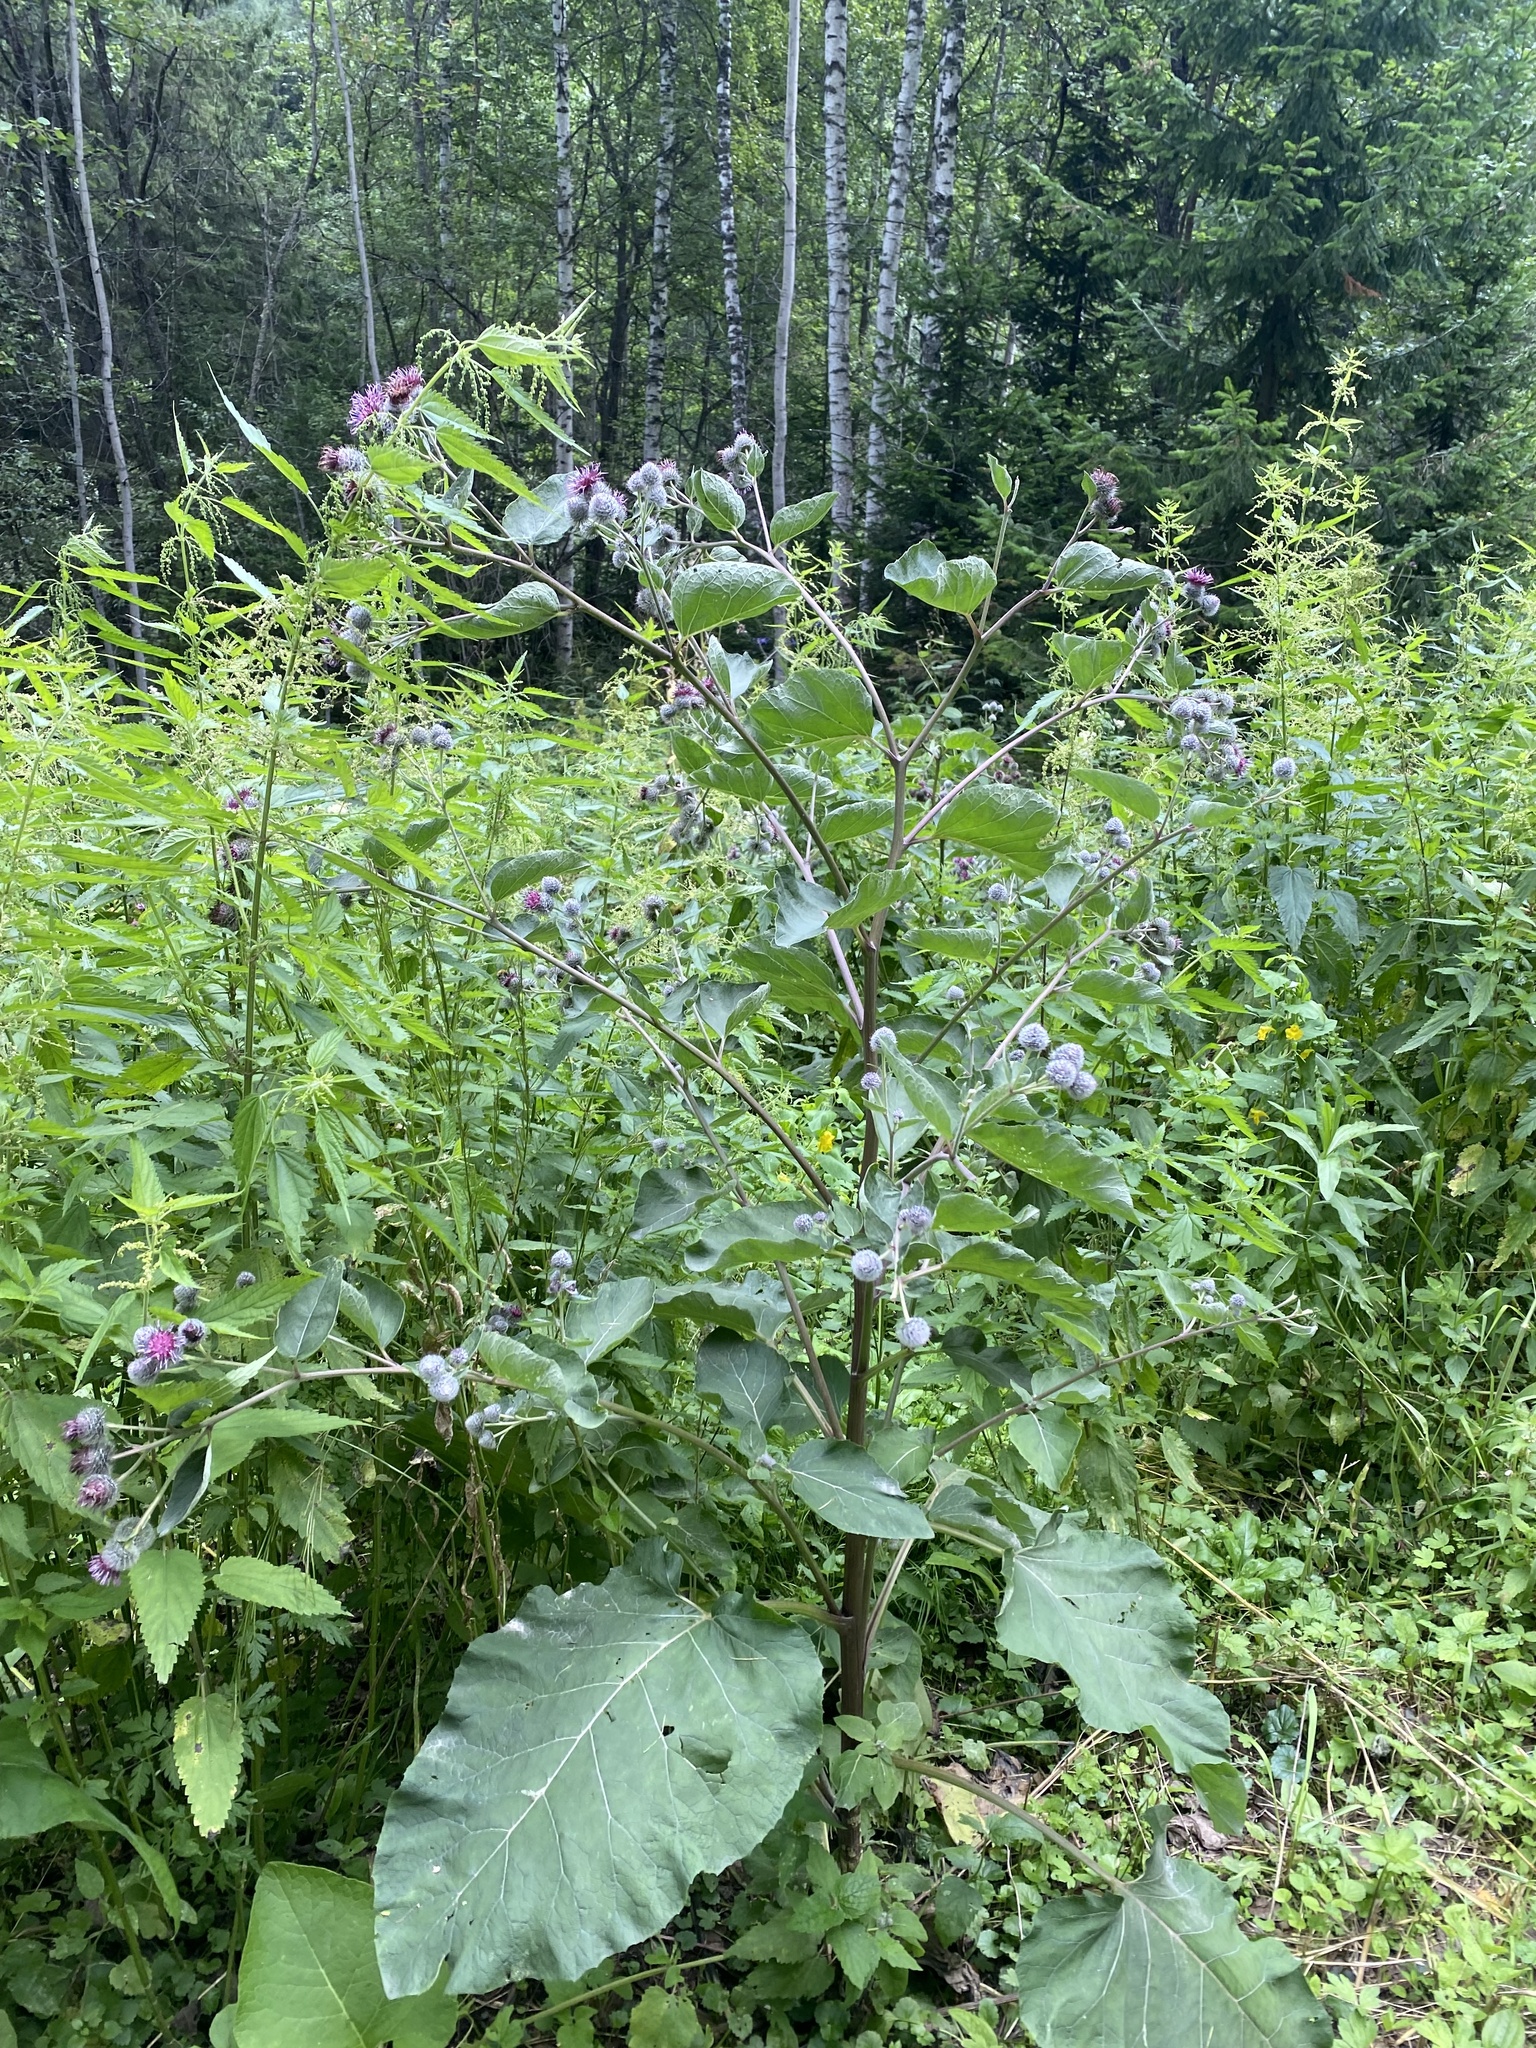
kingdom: Plantae
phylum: Tracheophyta
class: Magnoliopsida
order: Asterales
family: Asteraceae
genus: Arctium
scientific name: Arctium tomentosum
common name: Woolly burdock
